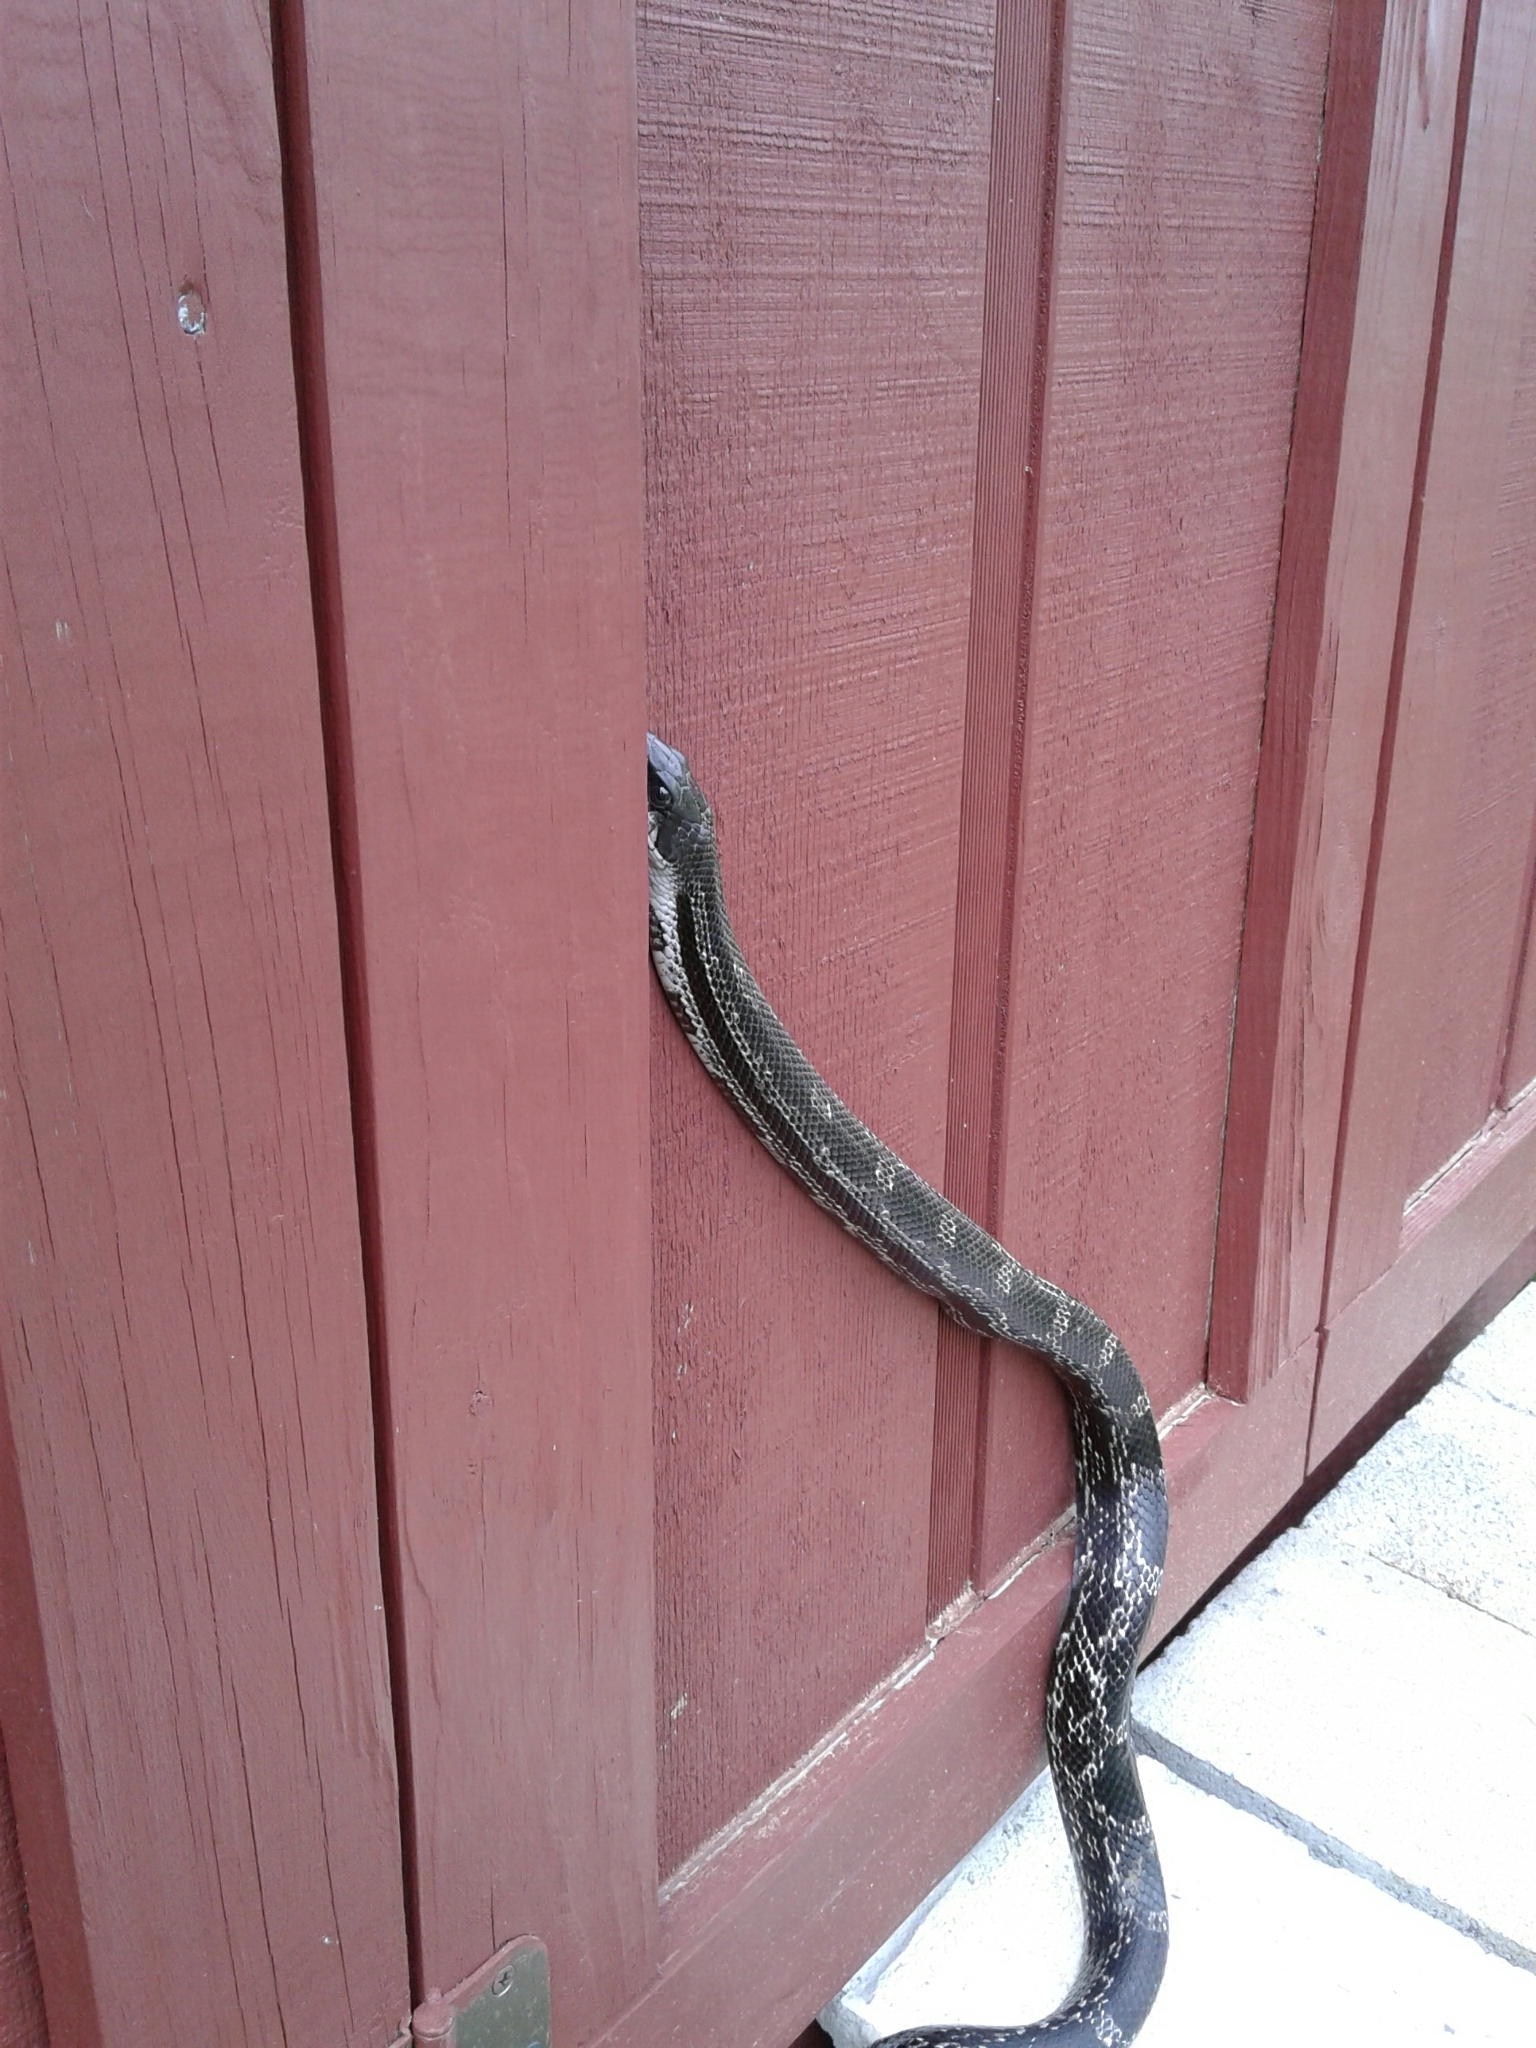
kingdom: Animalia
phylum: Chordata
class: Squamata
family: Colubridae
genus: Pantherophis
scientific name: Pantherophis spiloides
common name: Gray rat snake
